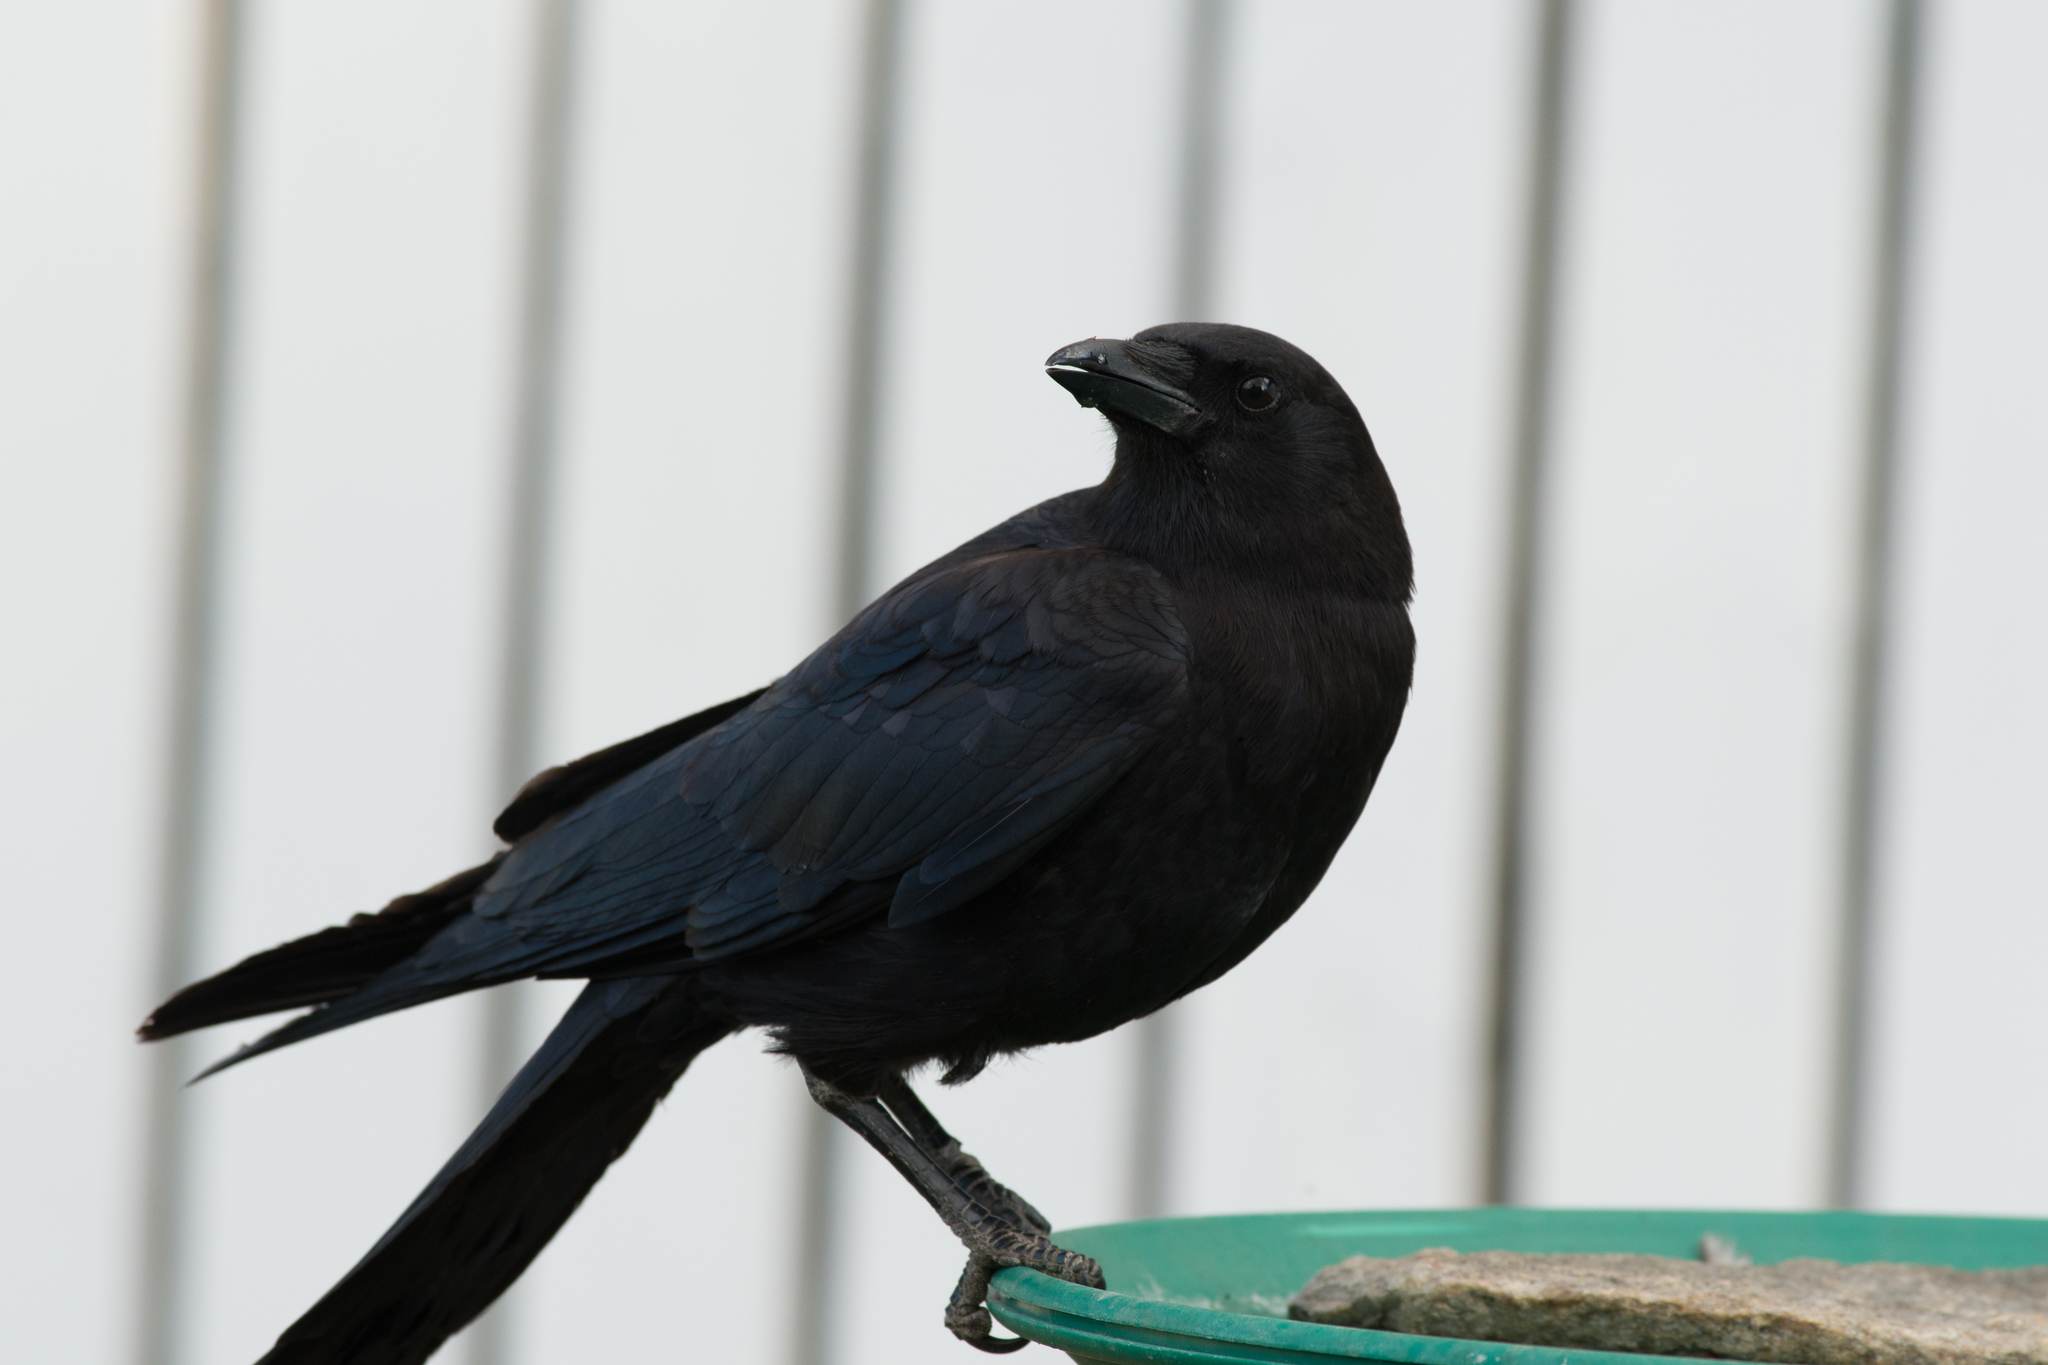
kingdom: Animalia
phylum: Chordata
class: Aves
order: Passeriformes
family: Corvidae
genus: Corvus
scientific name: Corvus brachyrhynchos
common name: American crow
